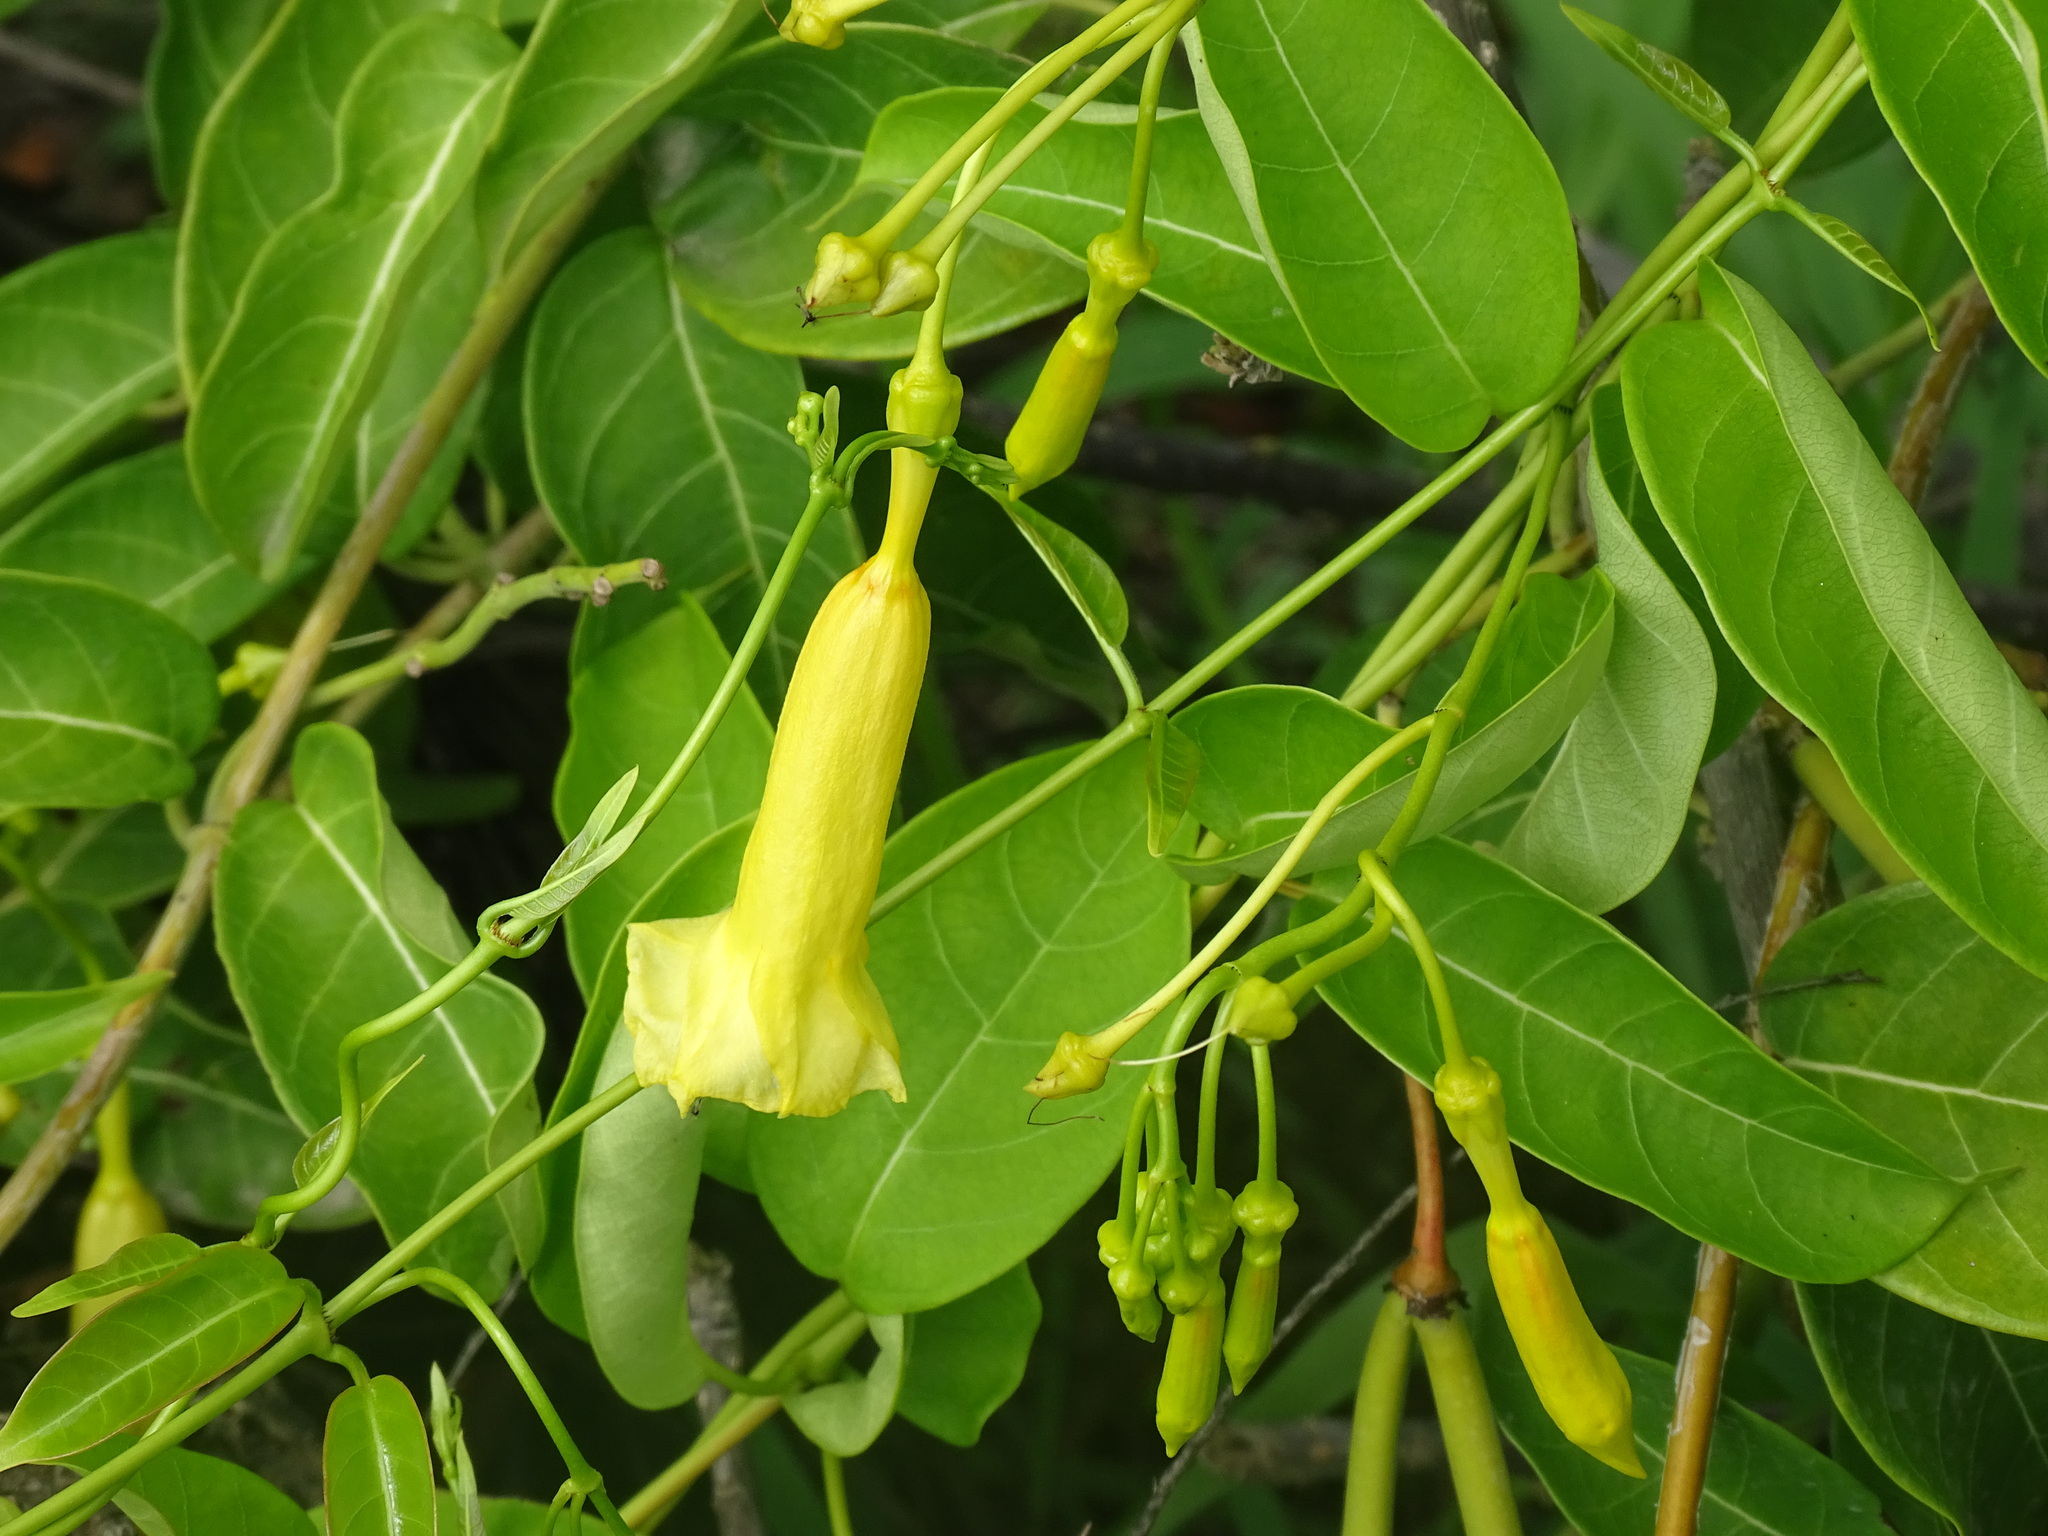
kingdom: Plantae
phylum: Tracheophyta
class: Magnoliopsida
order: Gentianales
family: Apocynaceae
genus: Pentalinon
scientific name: Pentalinon andrieuxii
